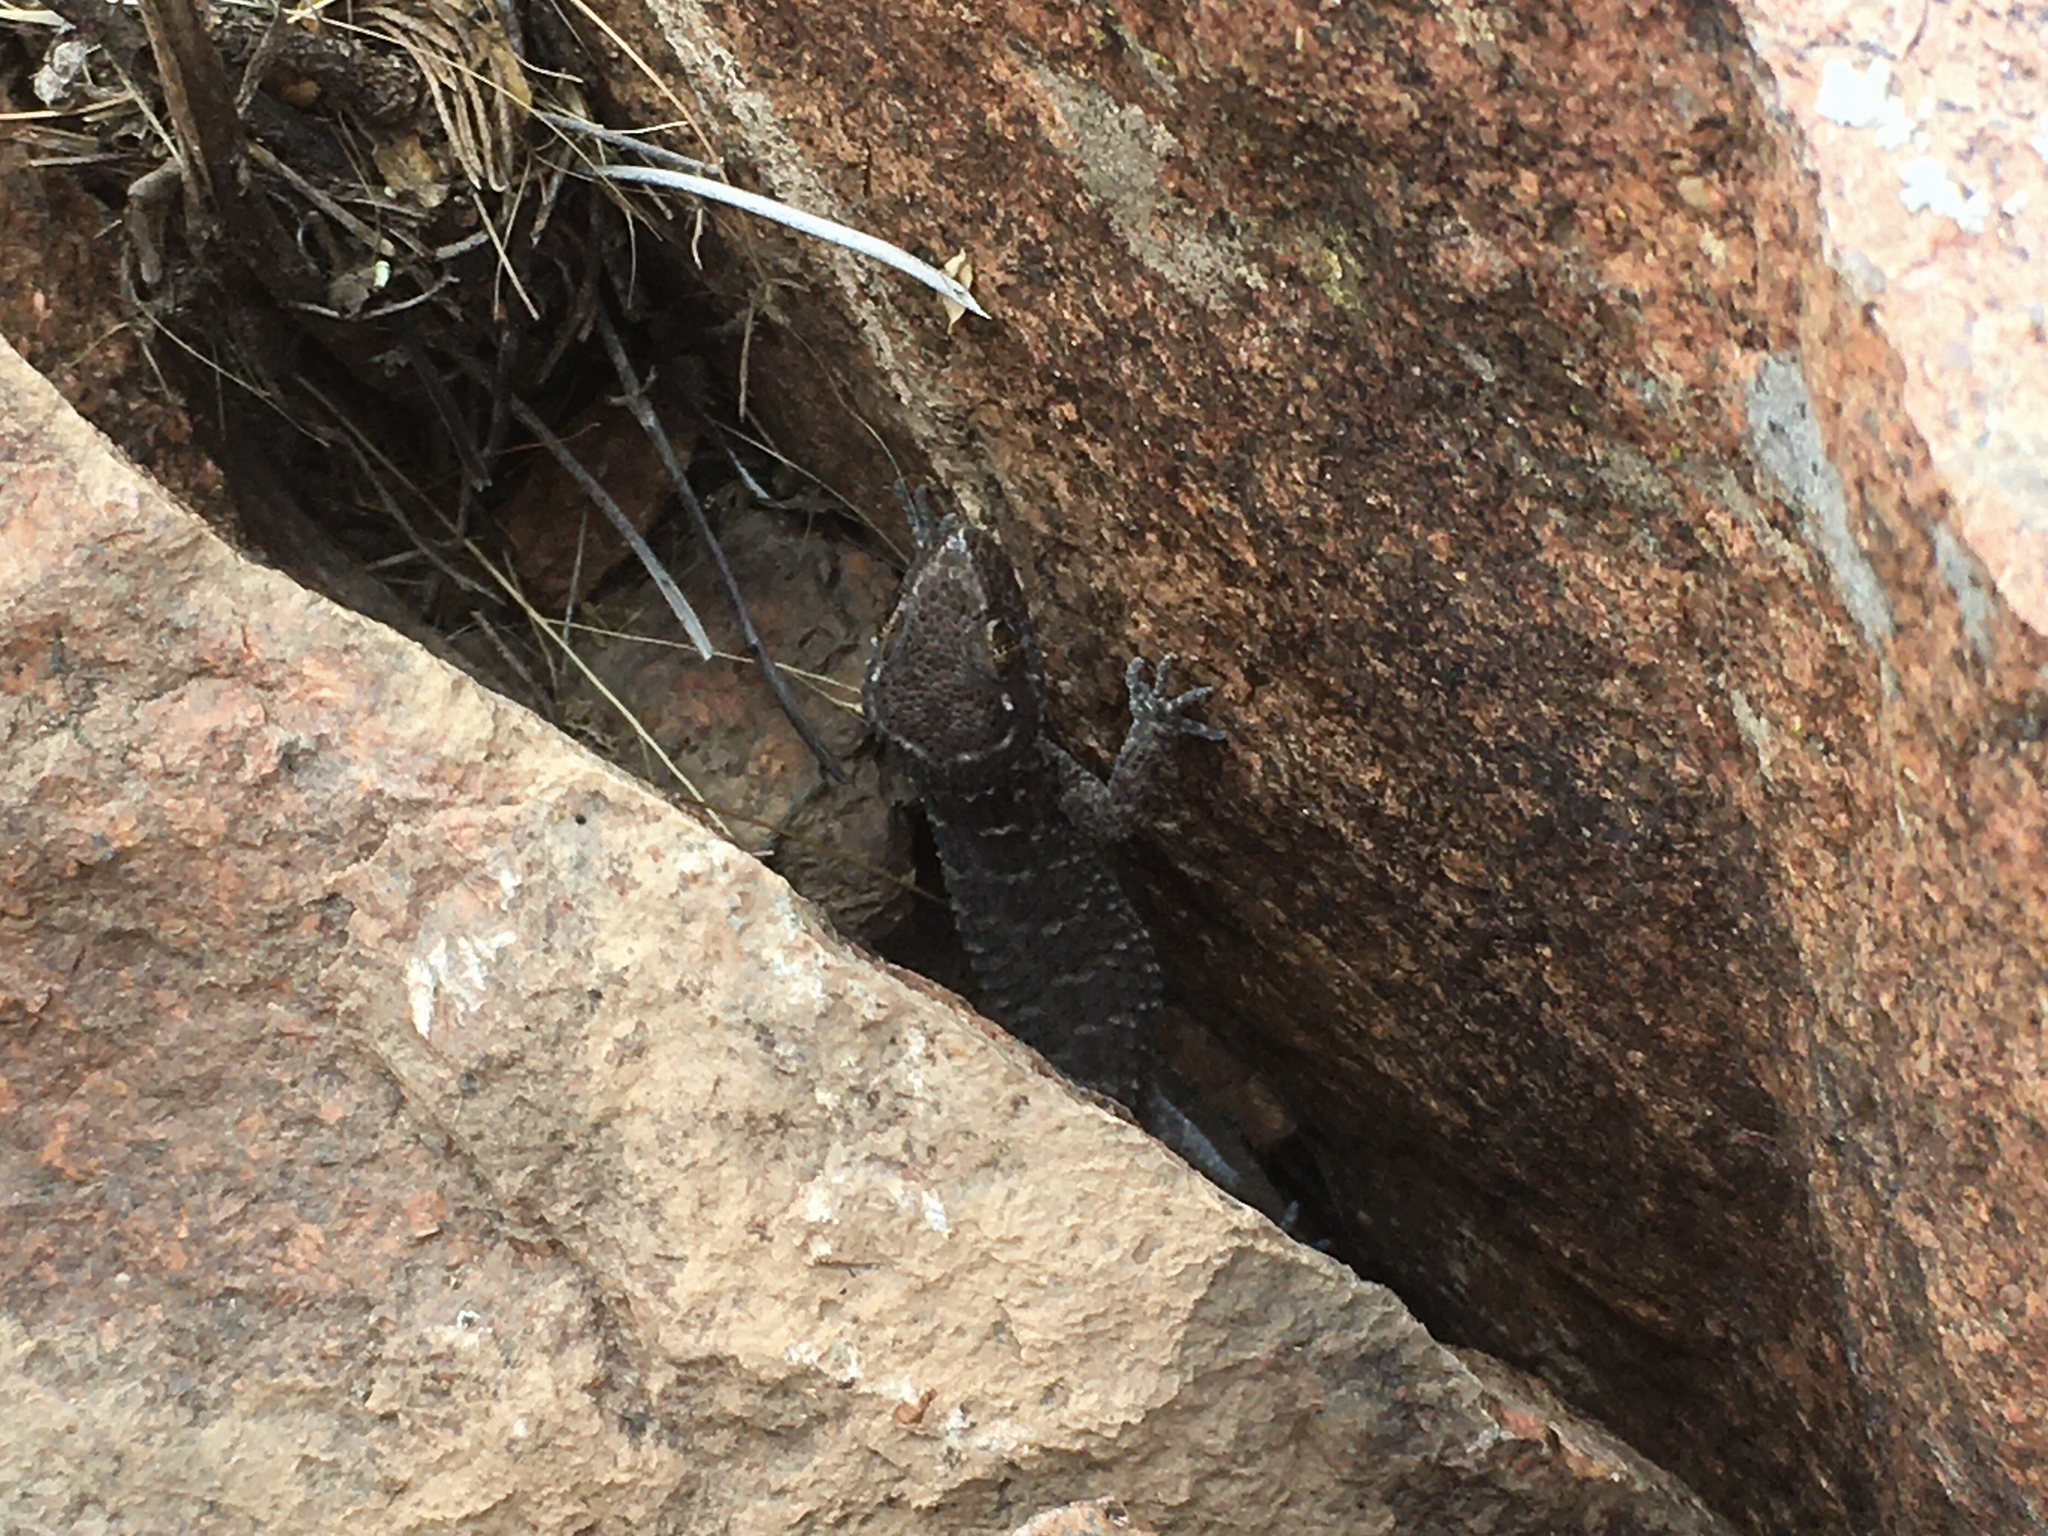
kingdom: Animalia
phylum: Chordata
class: Squamata
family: Phyllodactylidae
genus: Homonota
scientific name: Homonota horrida
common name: South american marked gecko
